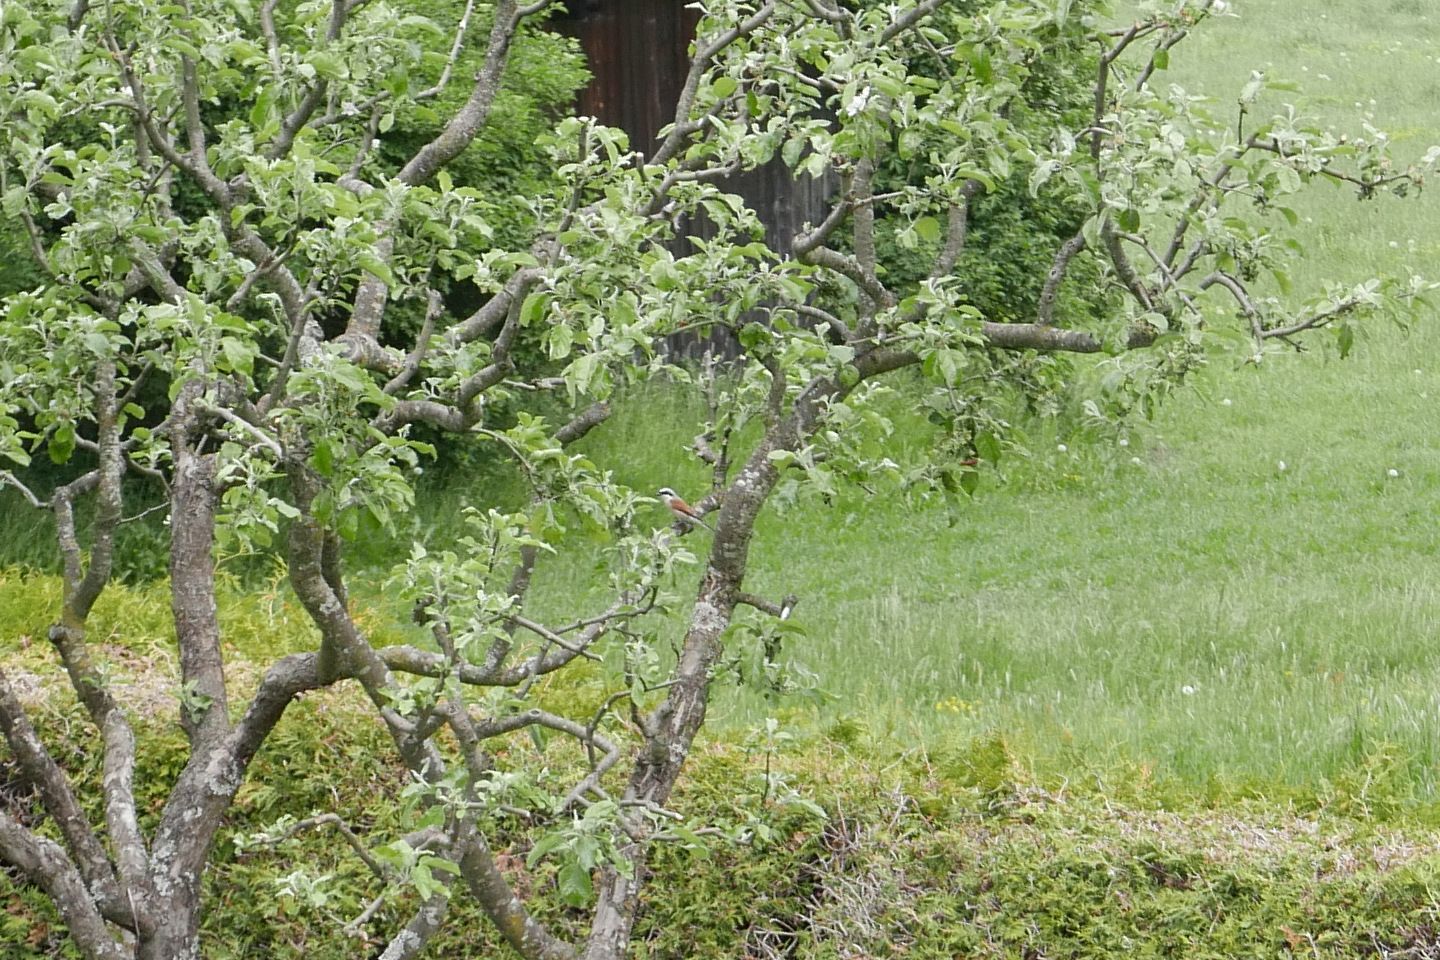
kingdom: Animalia
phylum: Chordata
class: Aves
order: Passeriformes
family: Laniidae
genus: Lanius
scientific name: Lanius collurio
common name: Red-backed shrike
